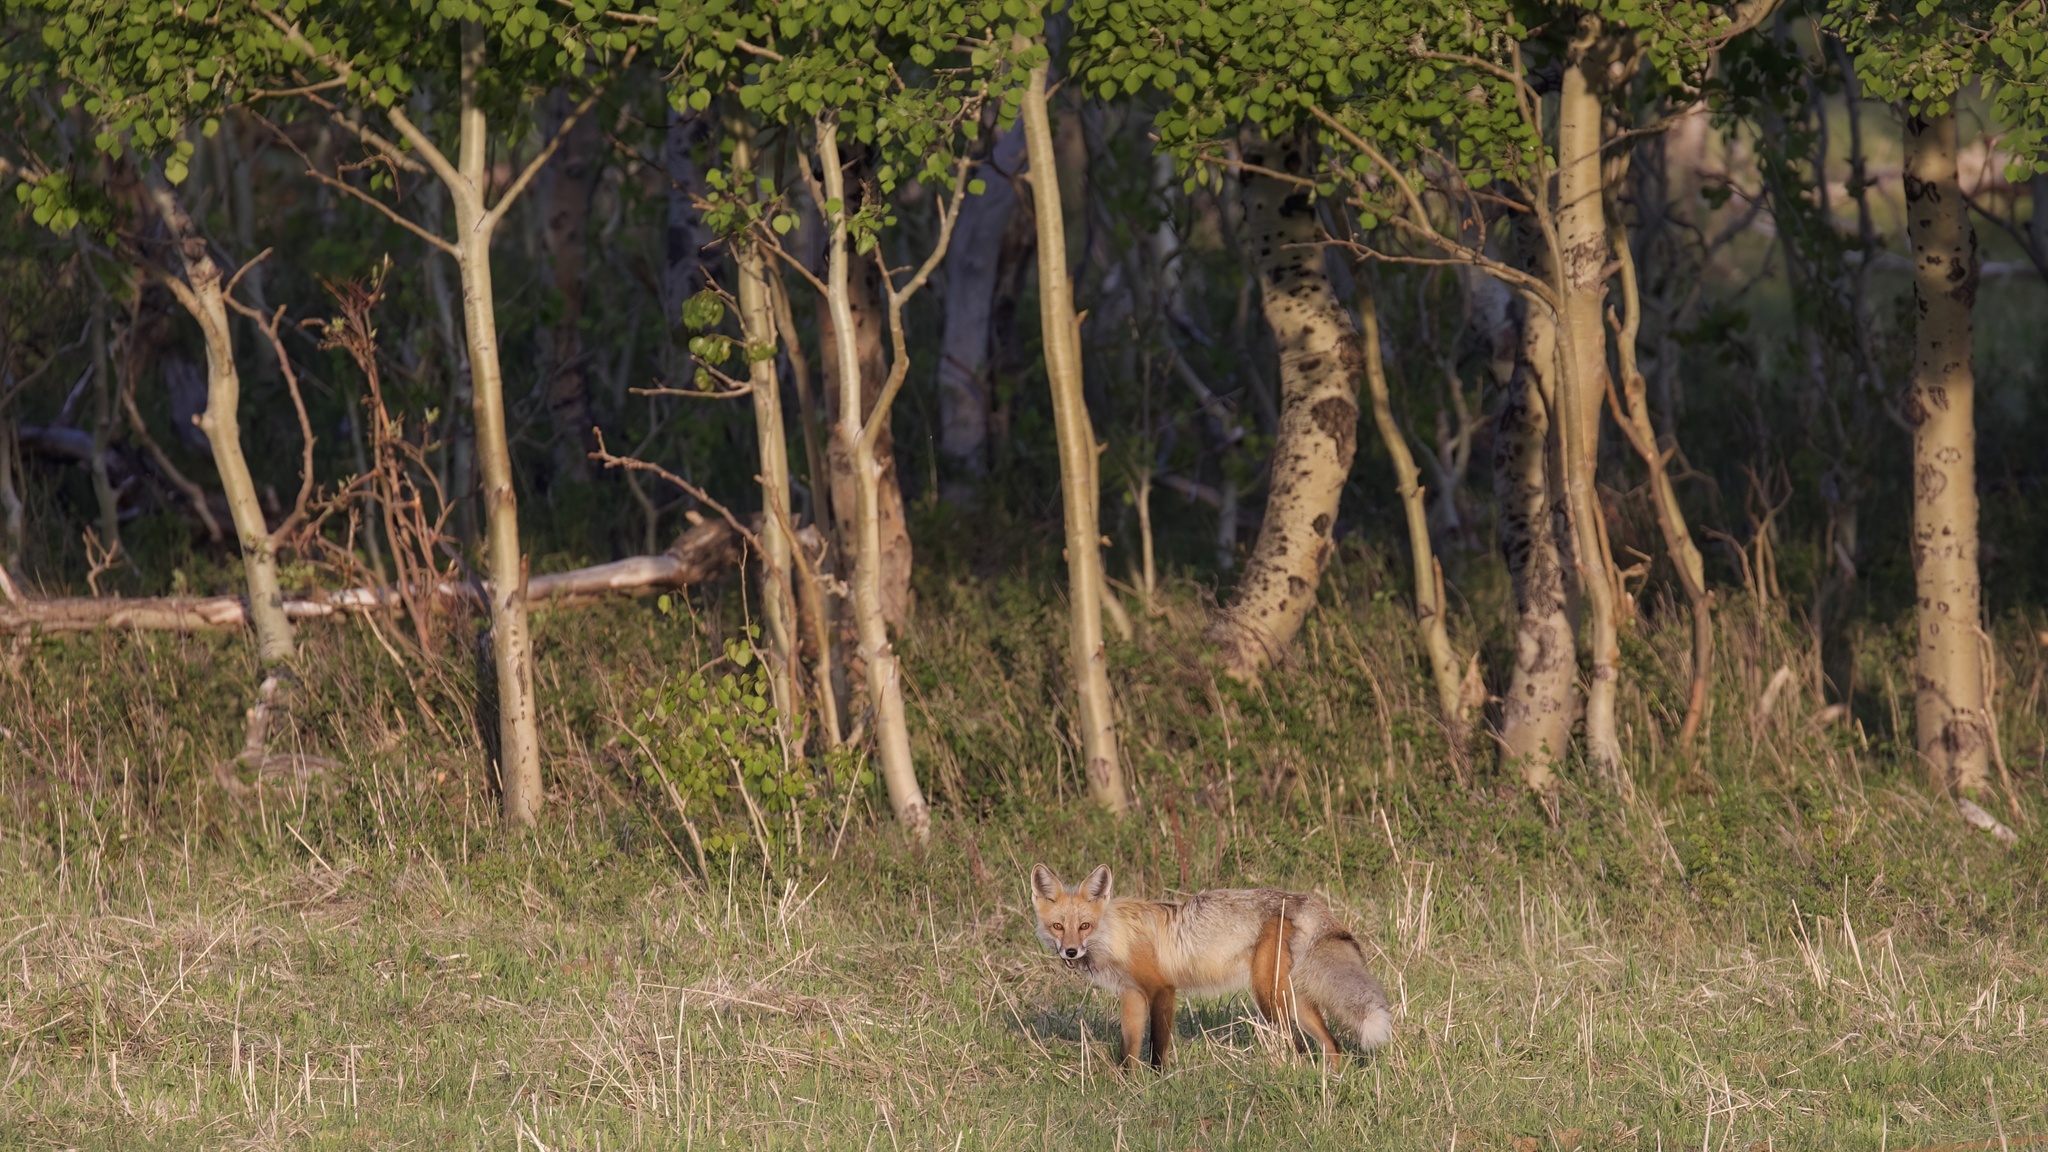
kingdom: Animalia
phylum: Chordata
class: Mammalia
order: Carnivora
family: Canidae
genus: Vulpes
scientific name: Vulpes vulpes
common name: Red fox
